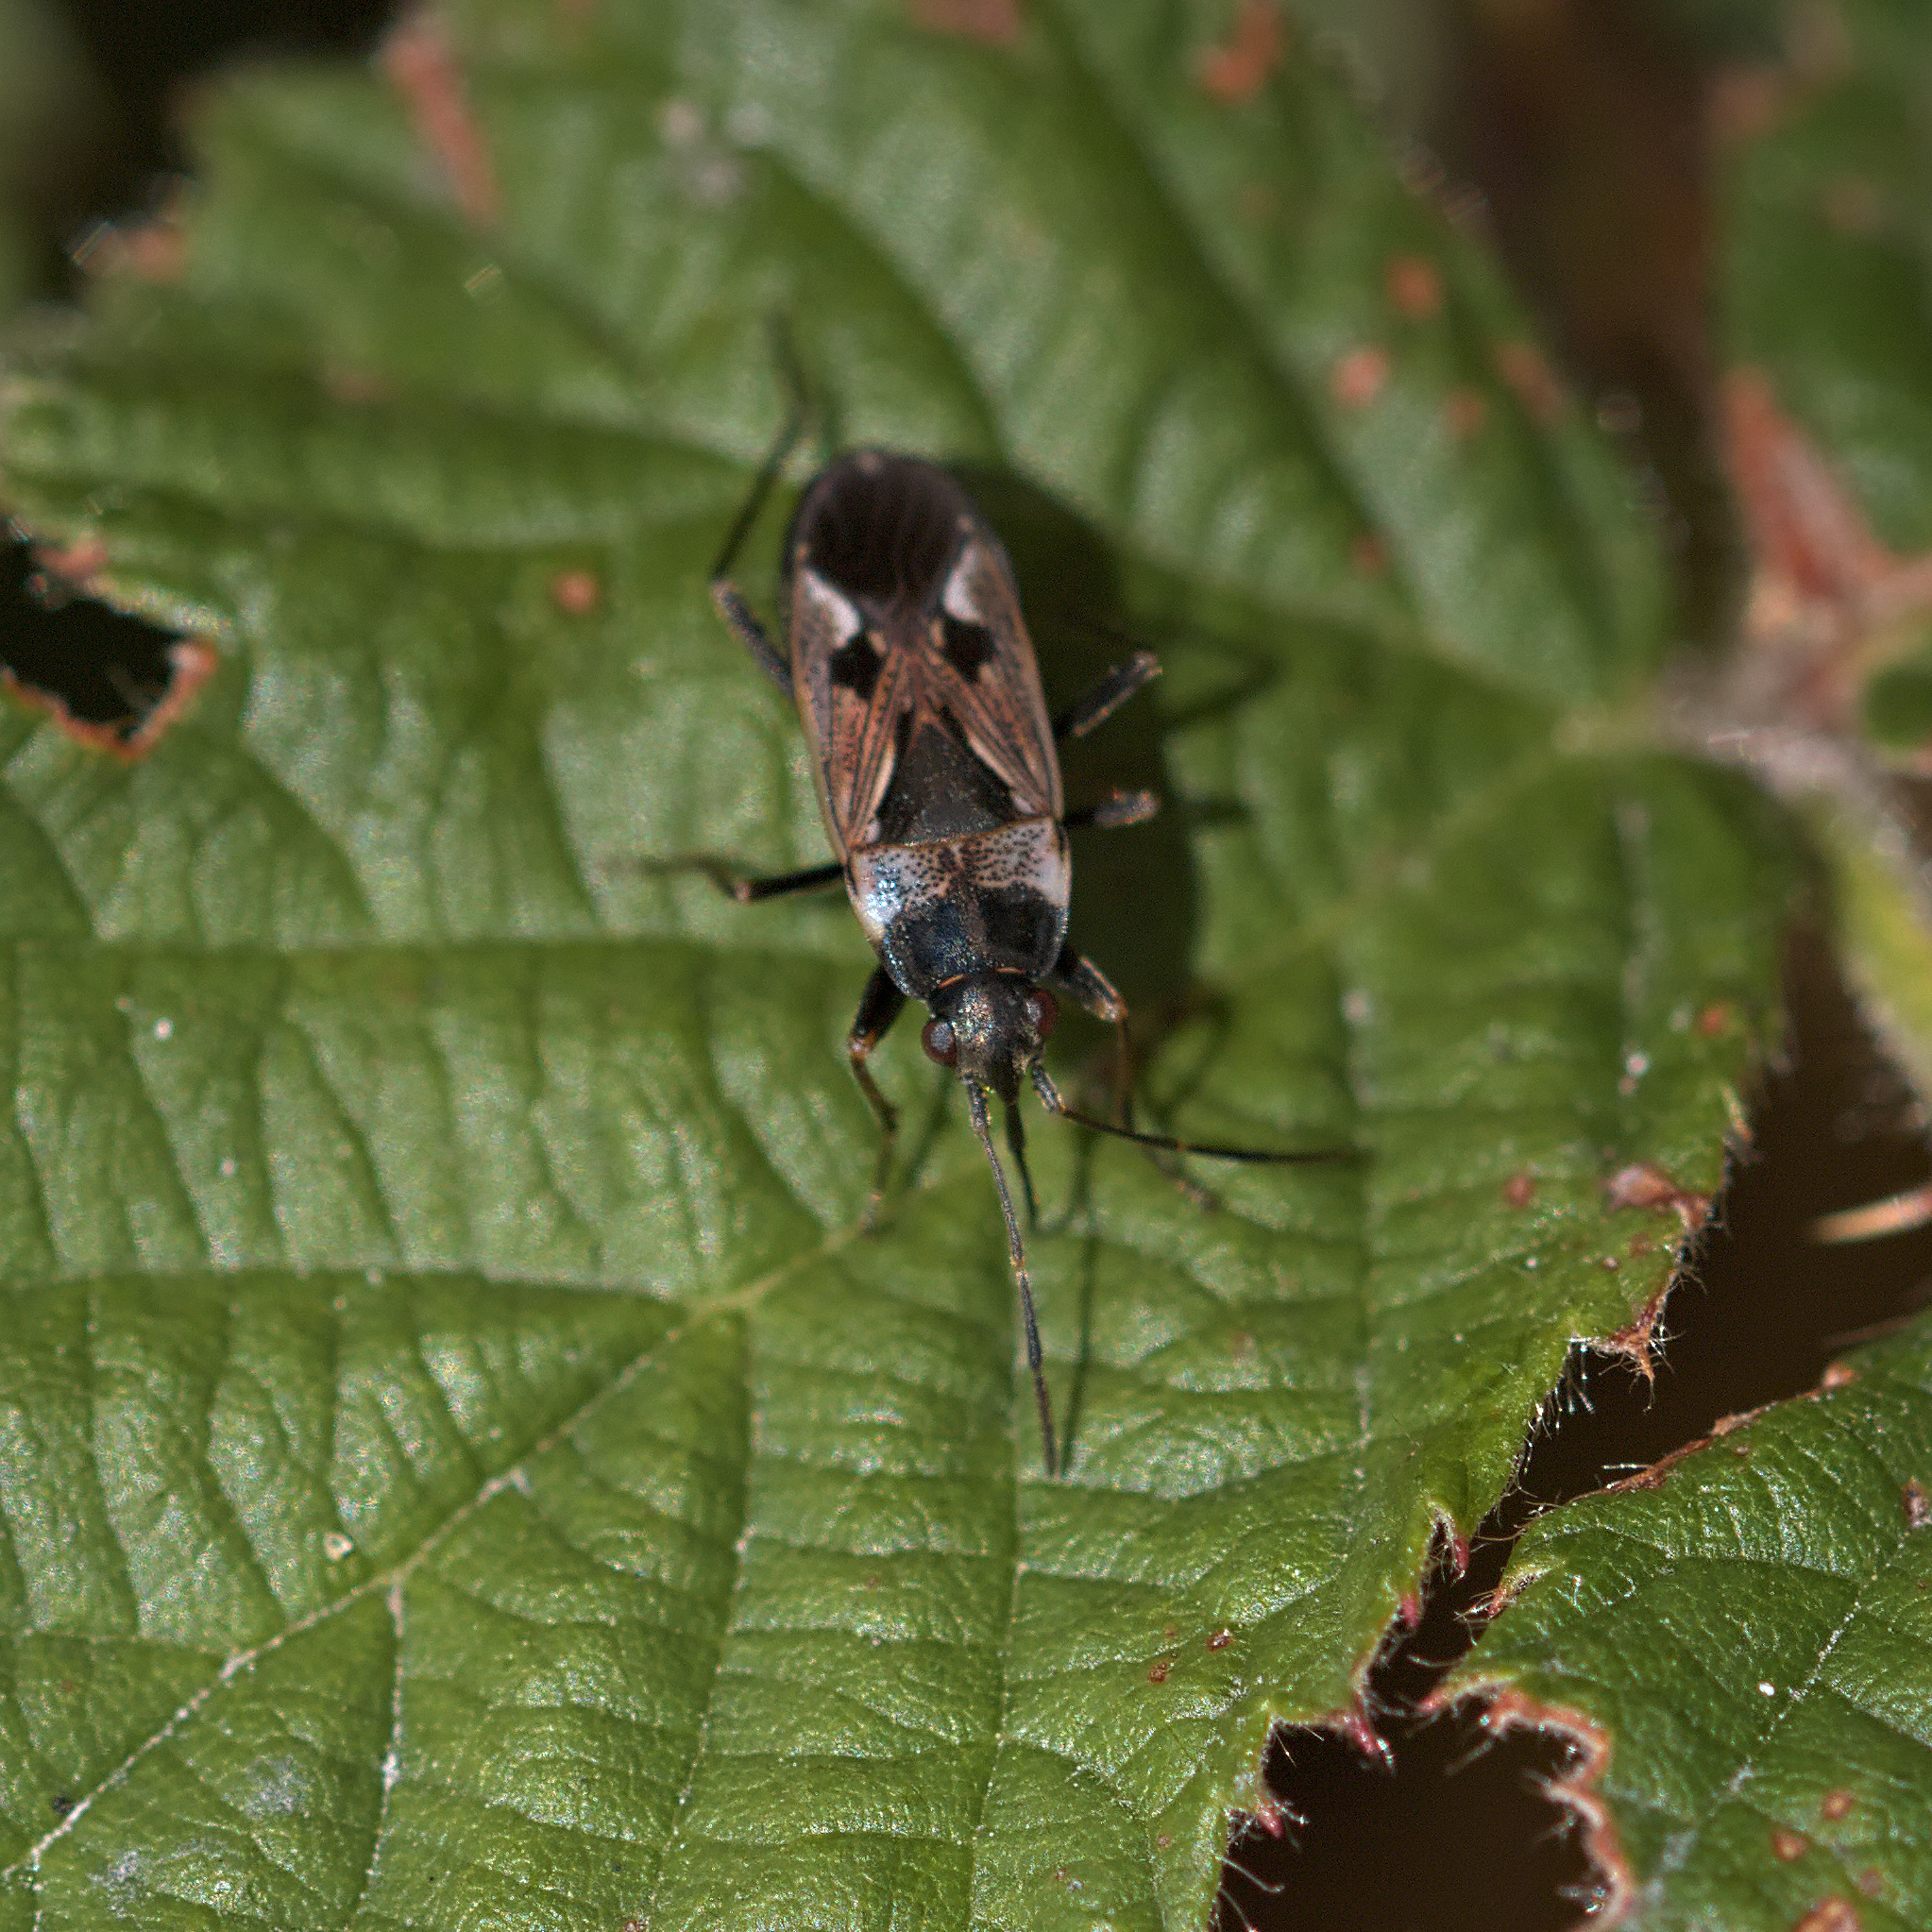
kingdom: Animalia
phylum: Arthropoda
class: Insecta
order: Hemiptera
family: Rhyparochromidae
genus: Rhyparochromus
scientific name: Rhyparochromus vulgaris
